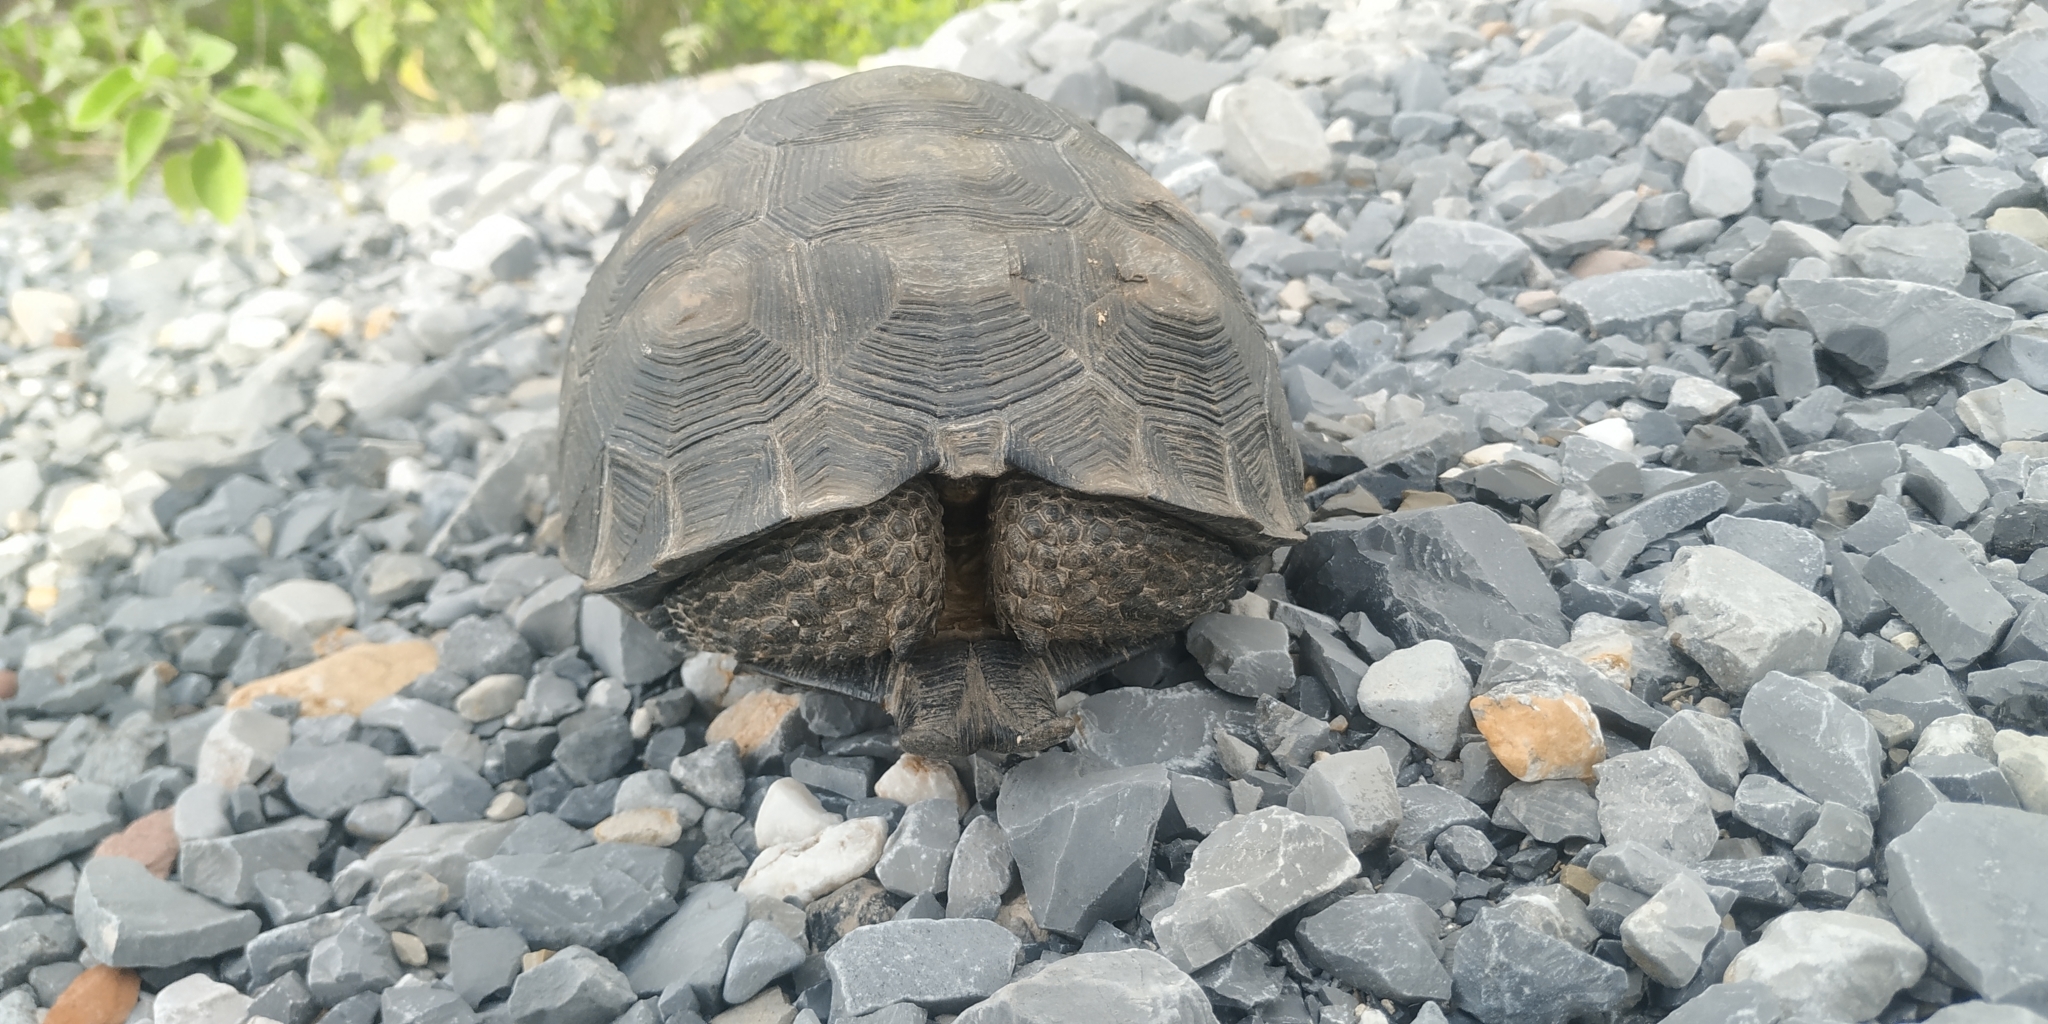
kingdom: Animalia
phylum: Chordata
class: Testudines
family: Testudinidae
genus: Gopherus
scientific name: Gopherus berlandieri
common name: Texas (gopher )tortoise
